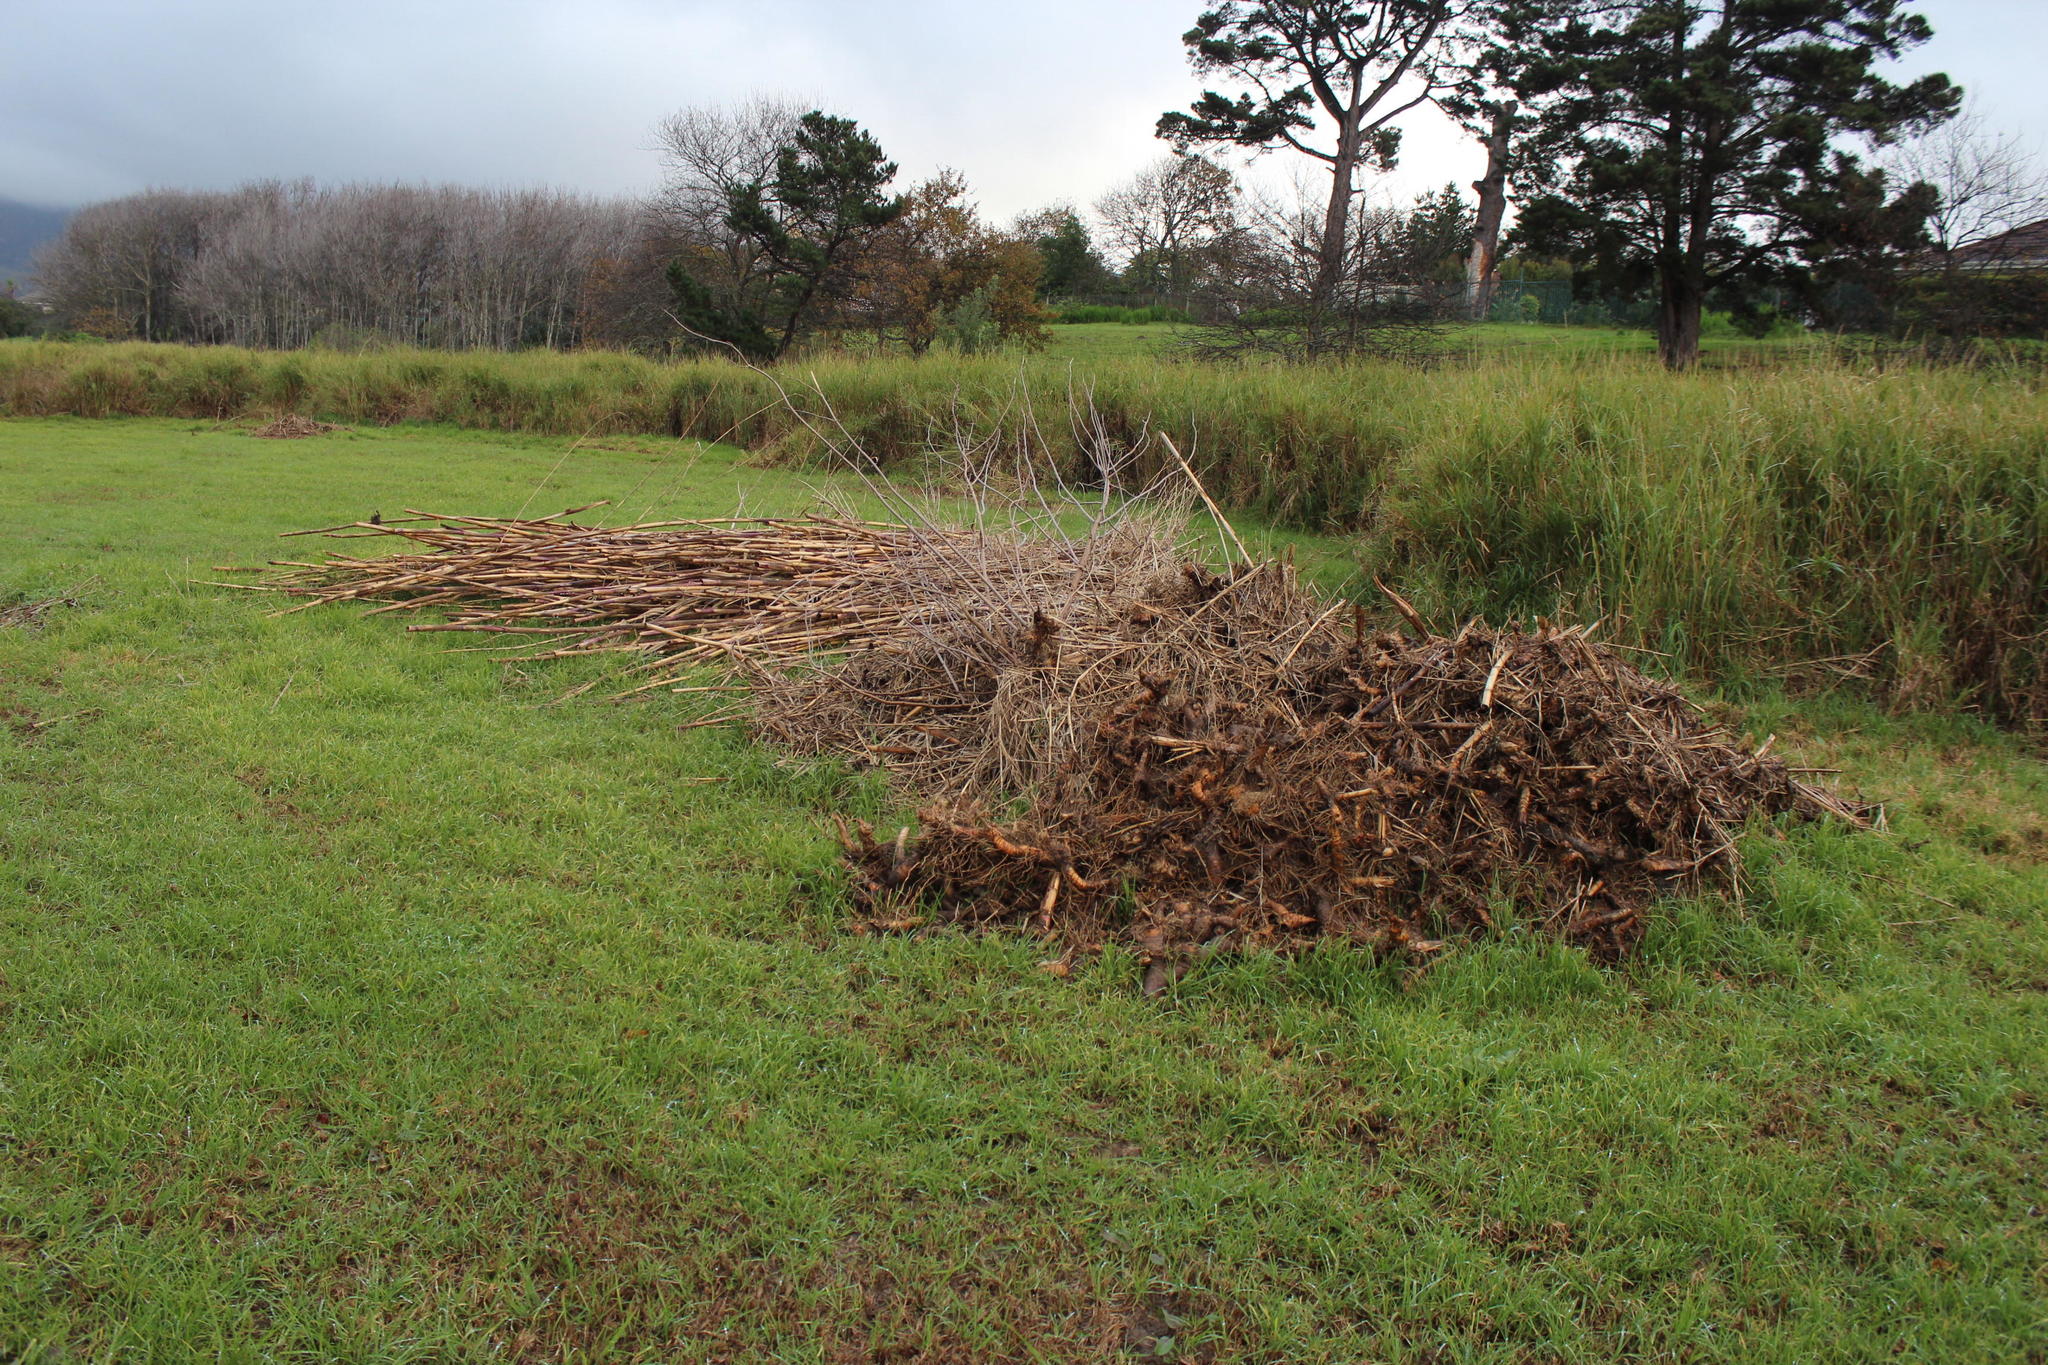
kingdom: Plantae
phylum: Tracheophyta
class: Liliopsida
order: Poales
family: Poaceae
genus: Arundo
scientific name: Arundo donax
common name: Giant reed
